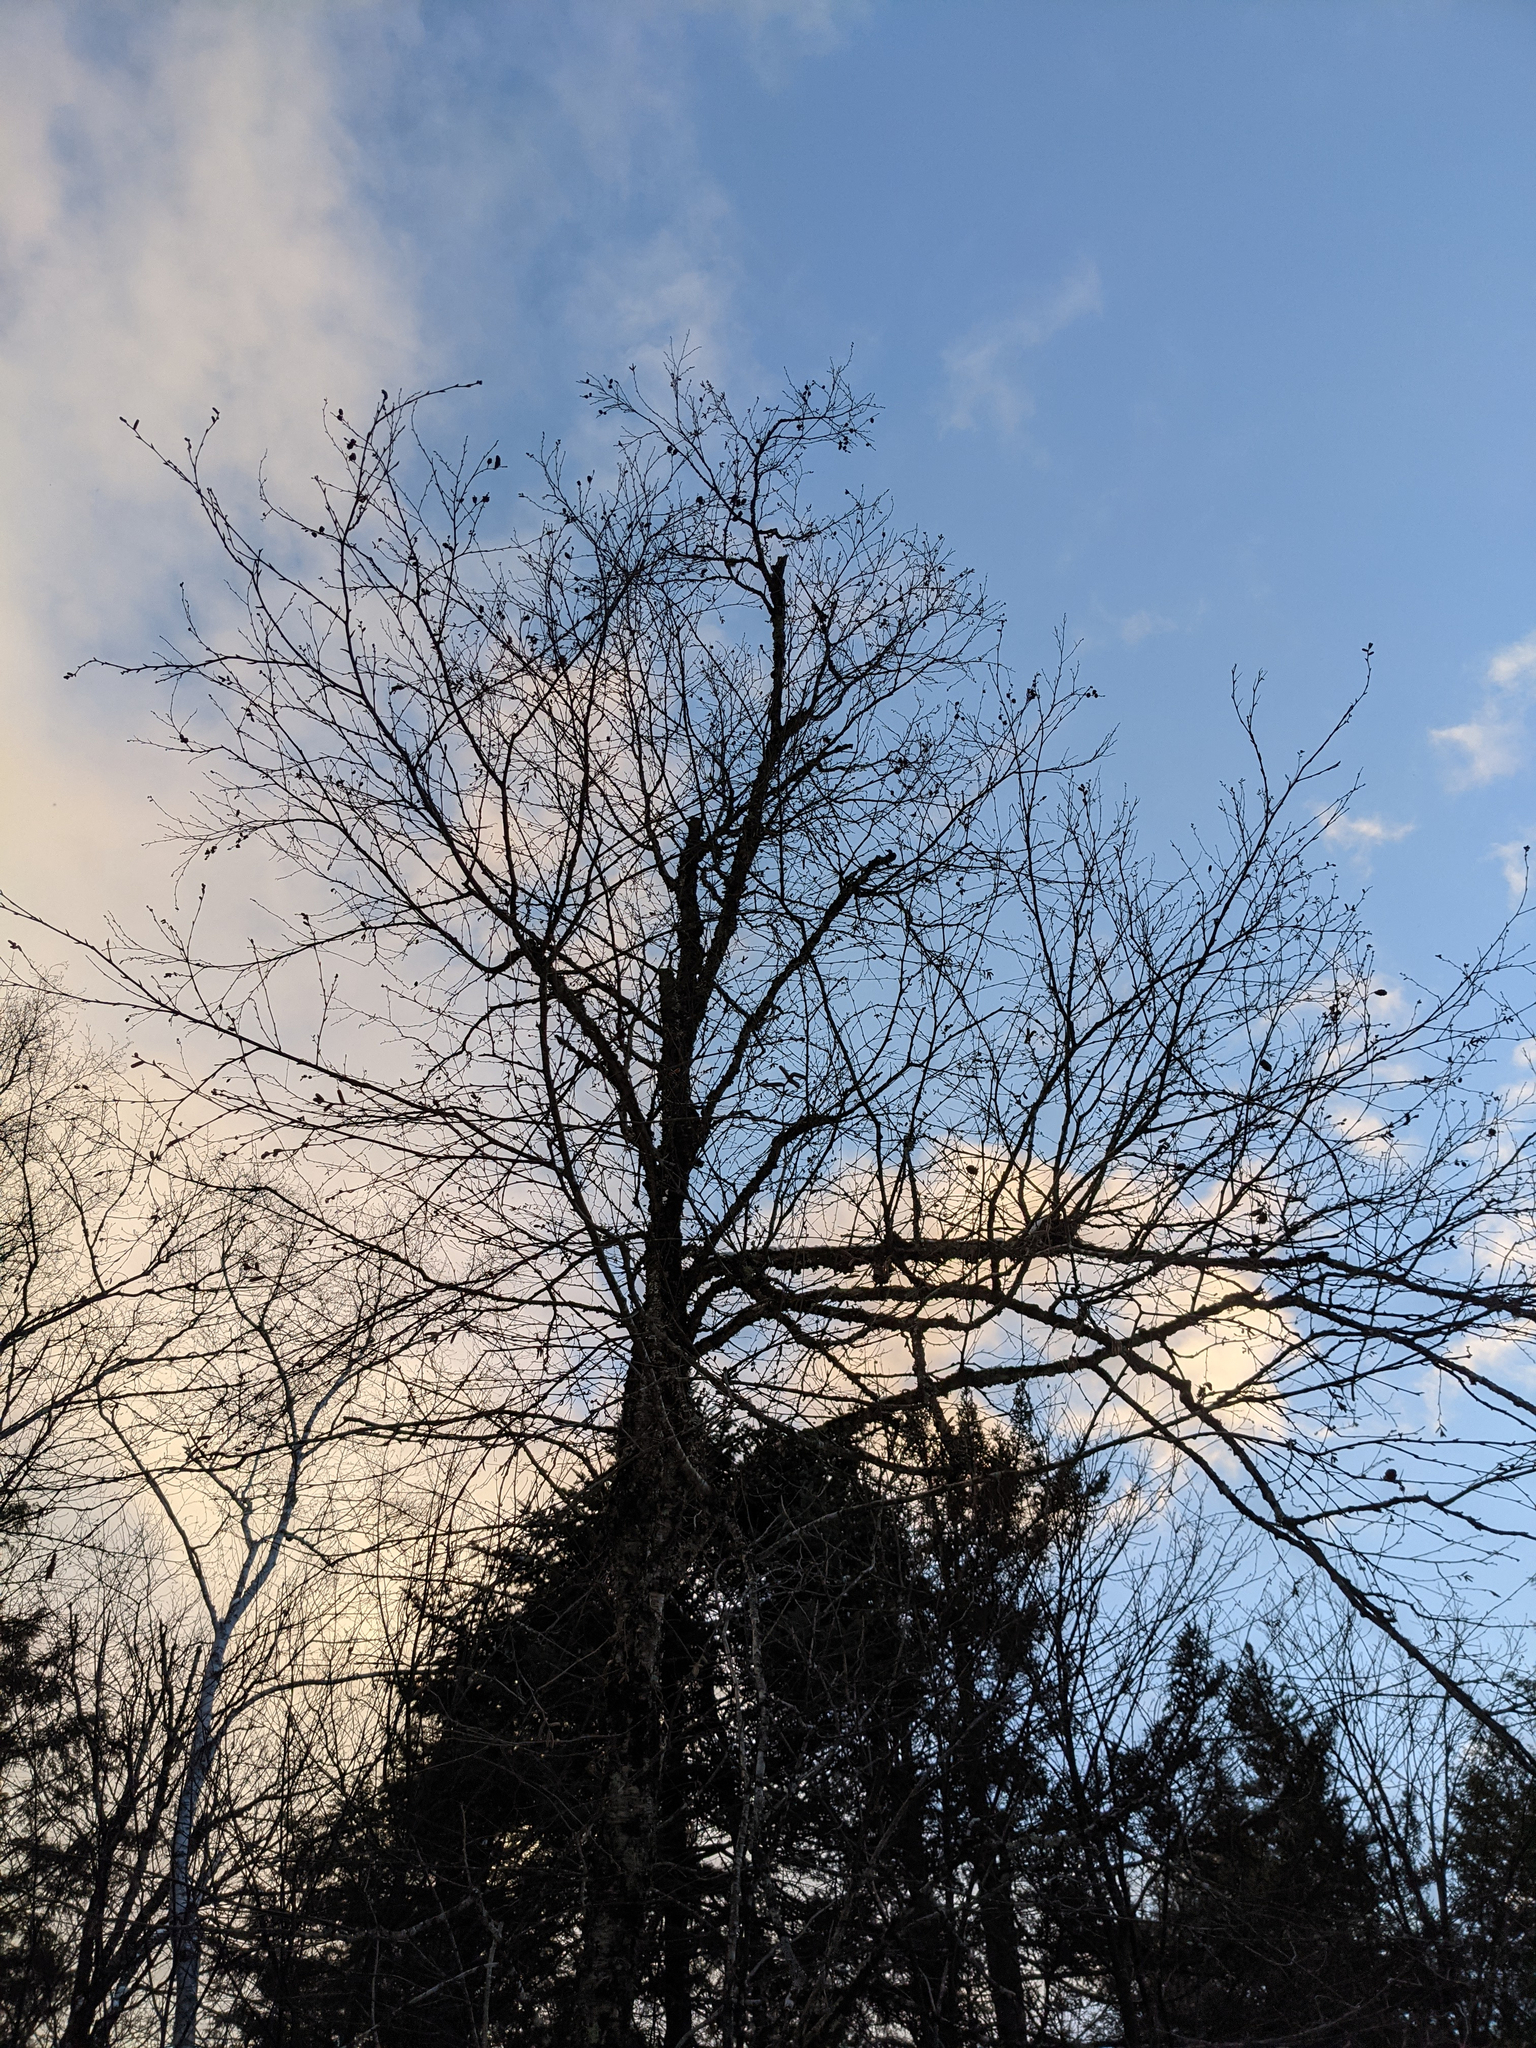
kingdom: Plantae
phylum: Tracheophyta
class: Magnoliopsida
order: Fagales
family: Betulaceae
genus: Betula
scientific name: Betula alleghaniensis
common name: Yellow birch
